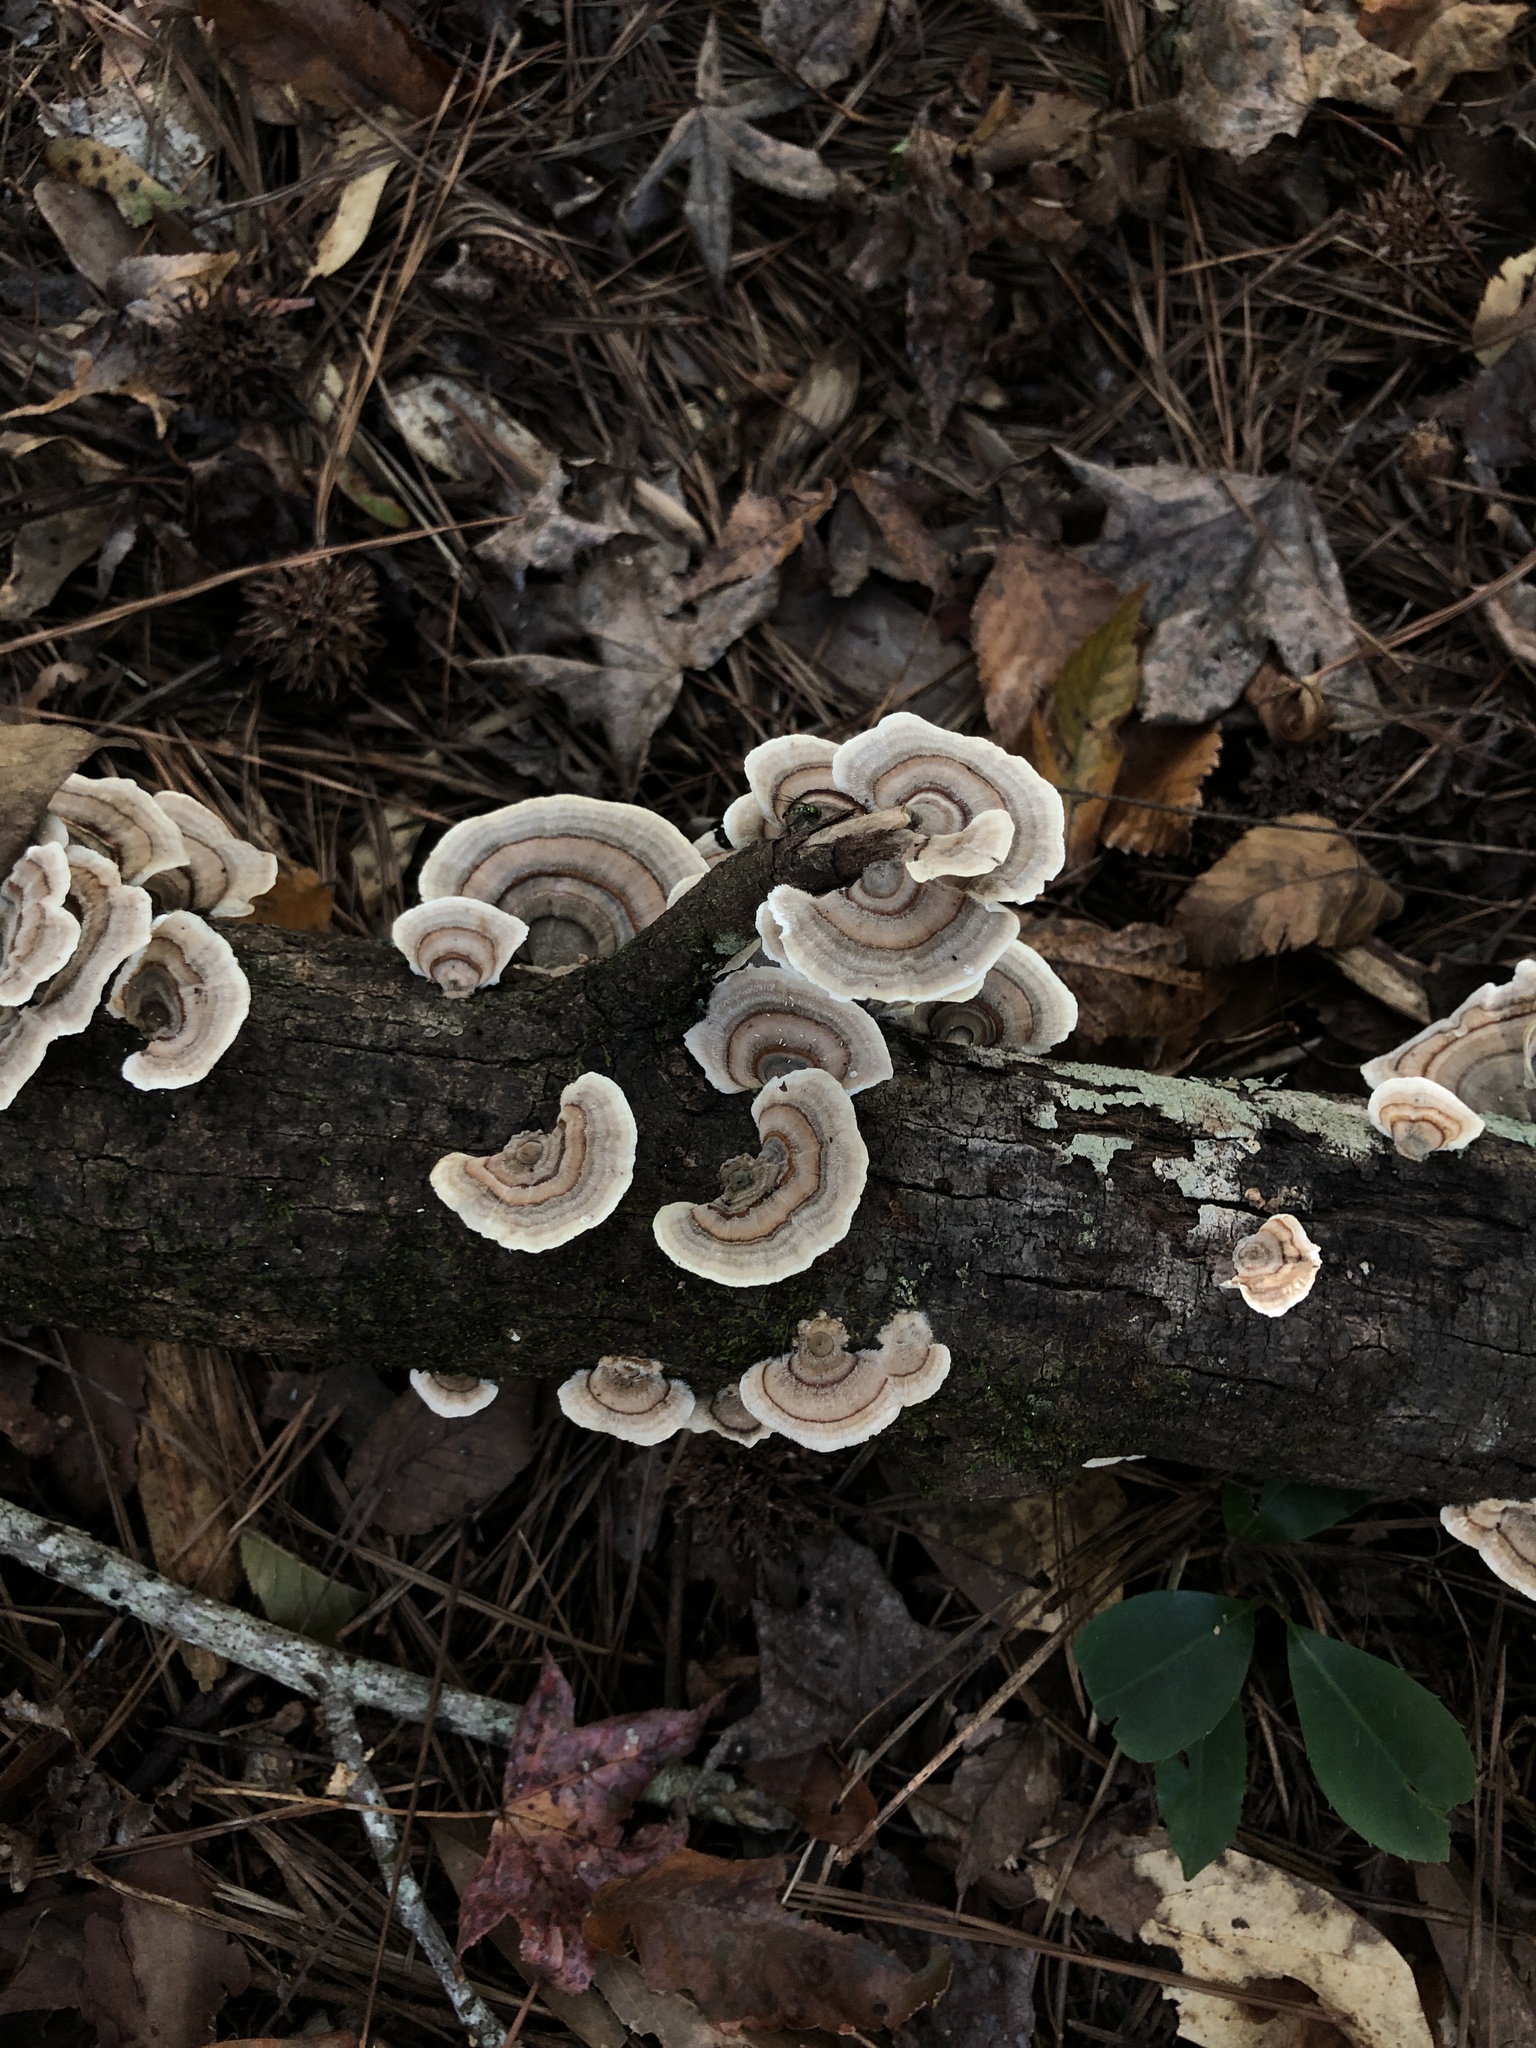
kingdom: Fungi
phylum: Basidiomycota
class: Agaricomycetes
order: Polyporales
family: Polyporaceae
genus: Trametes
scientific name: Trametes versicolor
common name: Turkeytail
